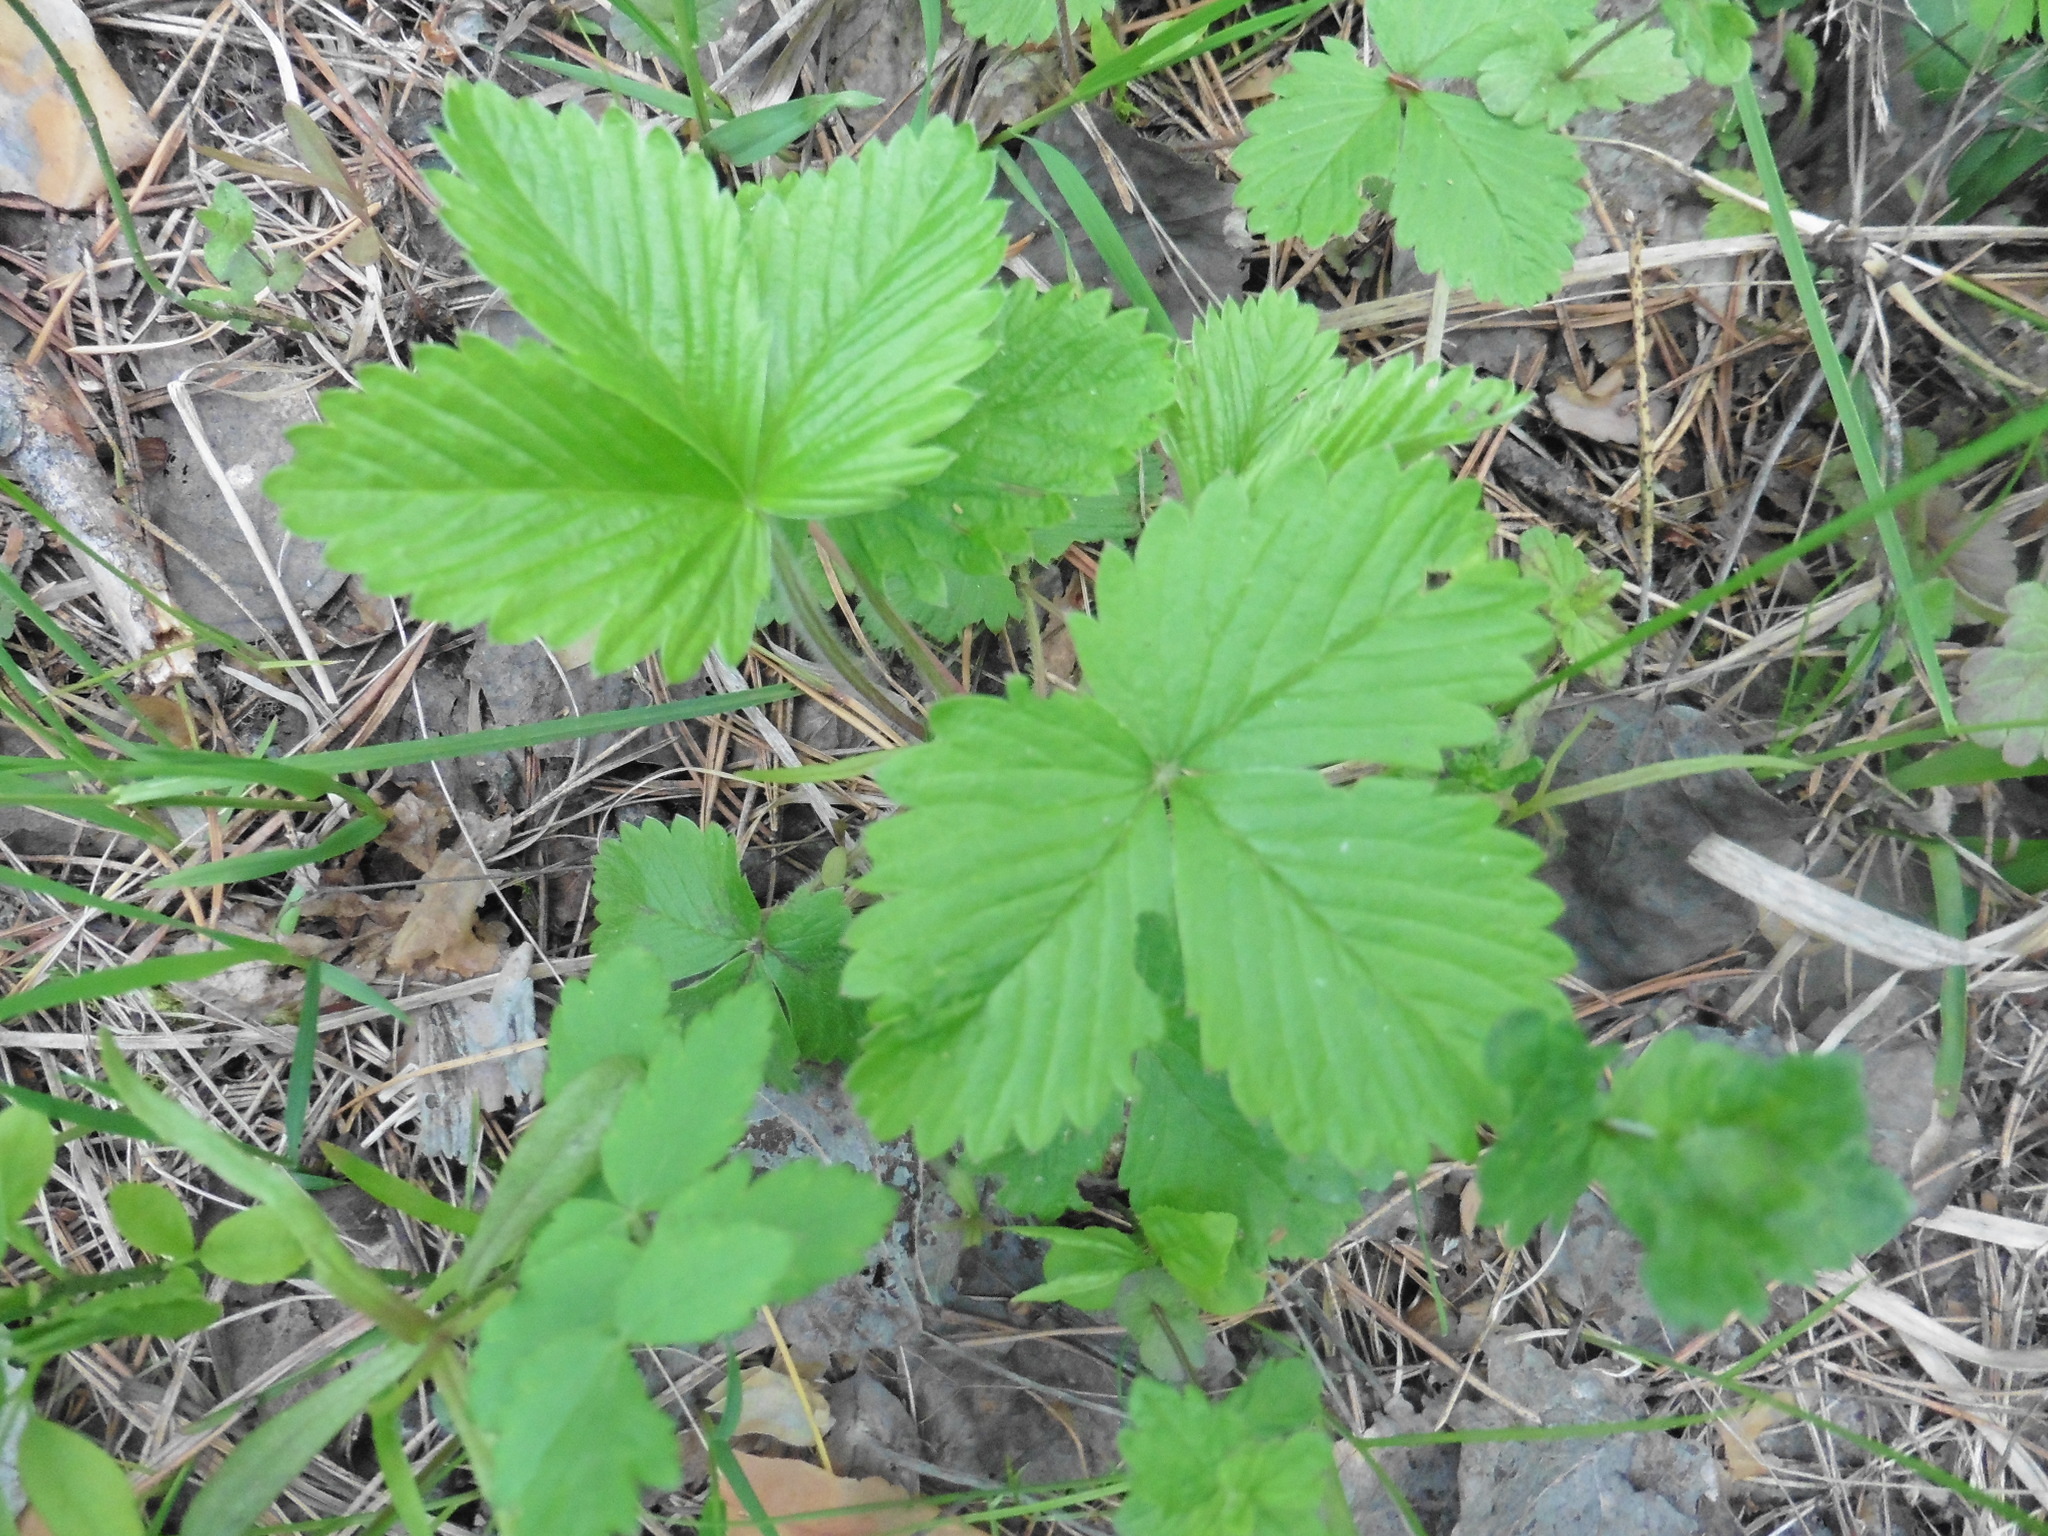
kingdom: Plantae
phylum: Tracheophyta
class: Magnoliopsida
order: Rosales
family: Rosaceae
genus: Fragaria
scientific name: Fragaria vesca
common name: Wild strawberry
